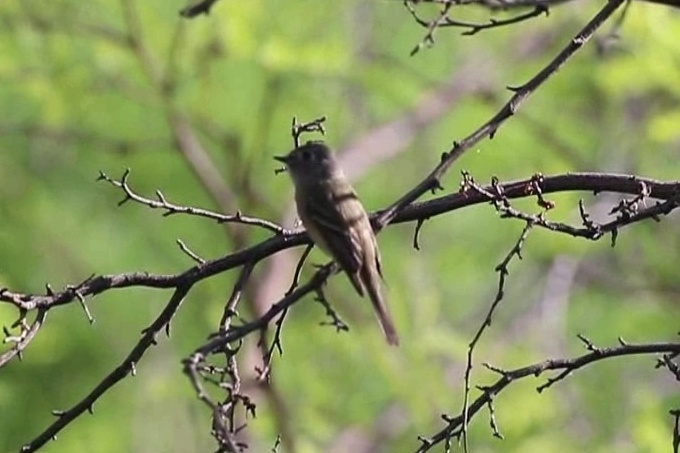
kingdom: Animalia
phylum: Chordata
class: Aves
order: Passeriformes
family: Tyrannidae
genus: Empidonax
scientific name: Empidonax hammondii
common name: Hammond's flycatcher
